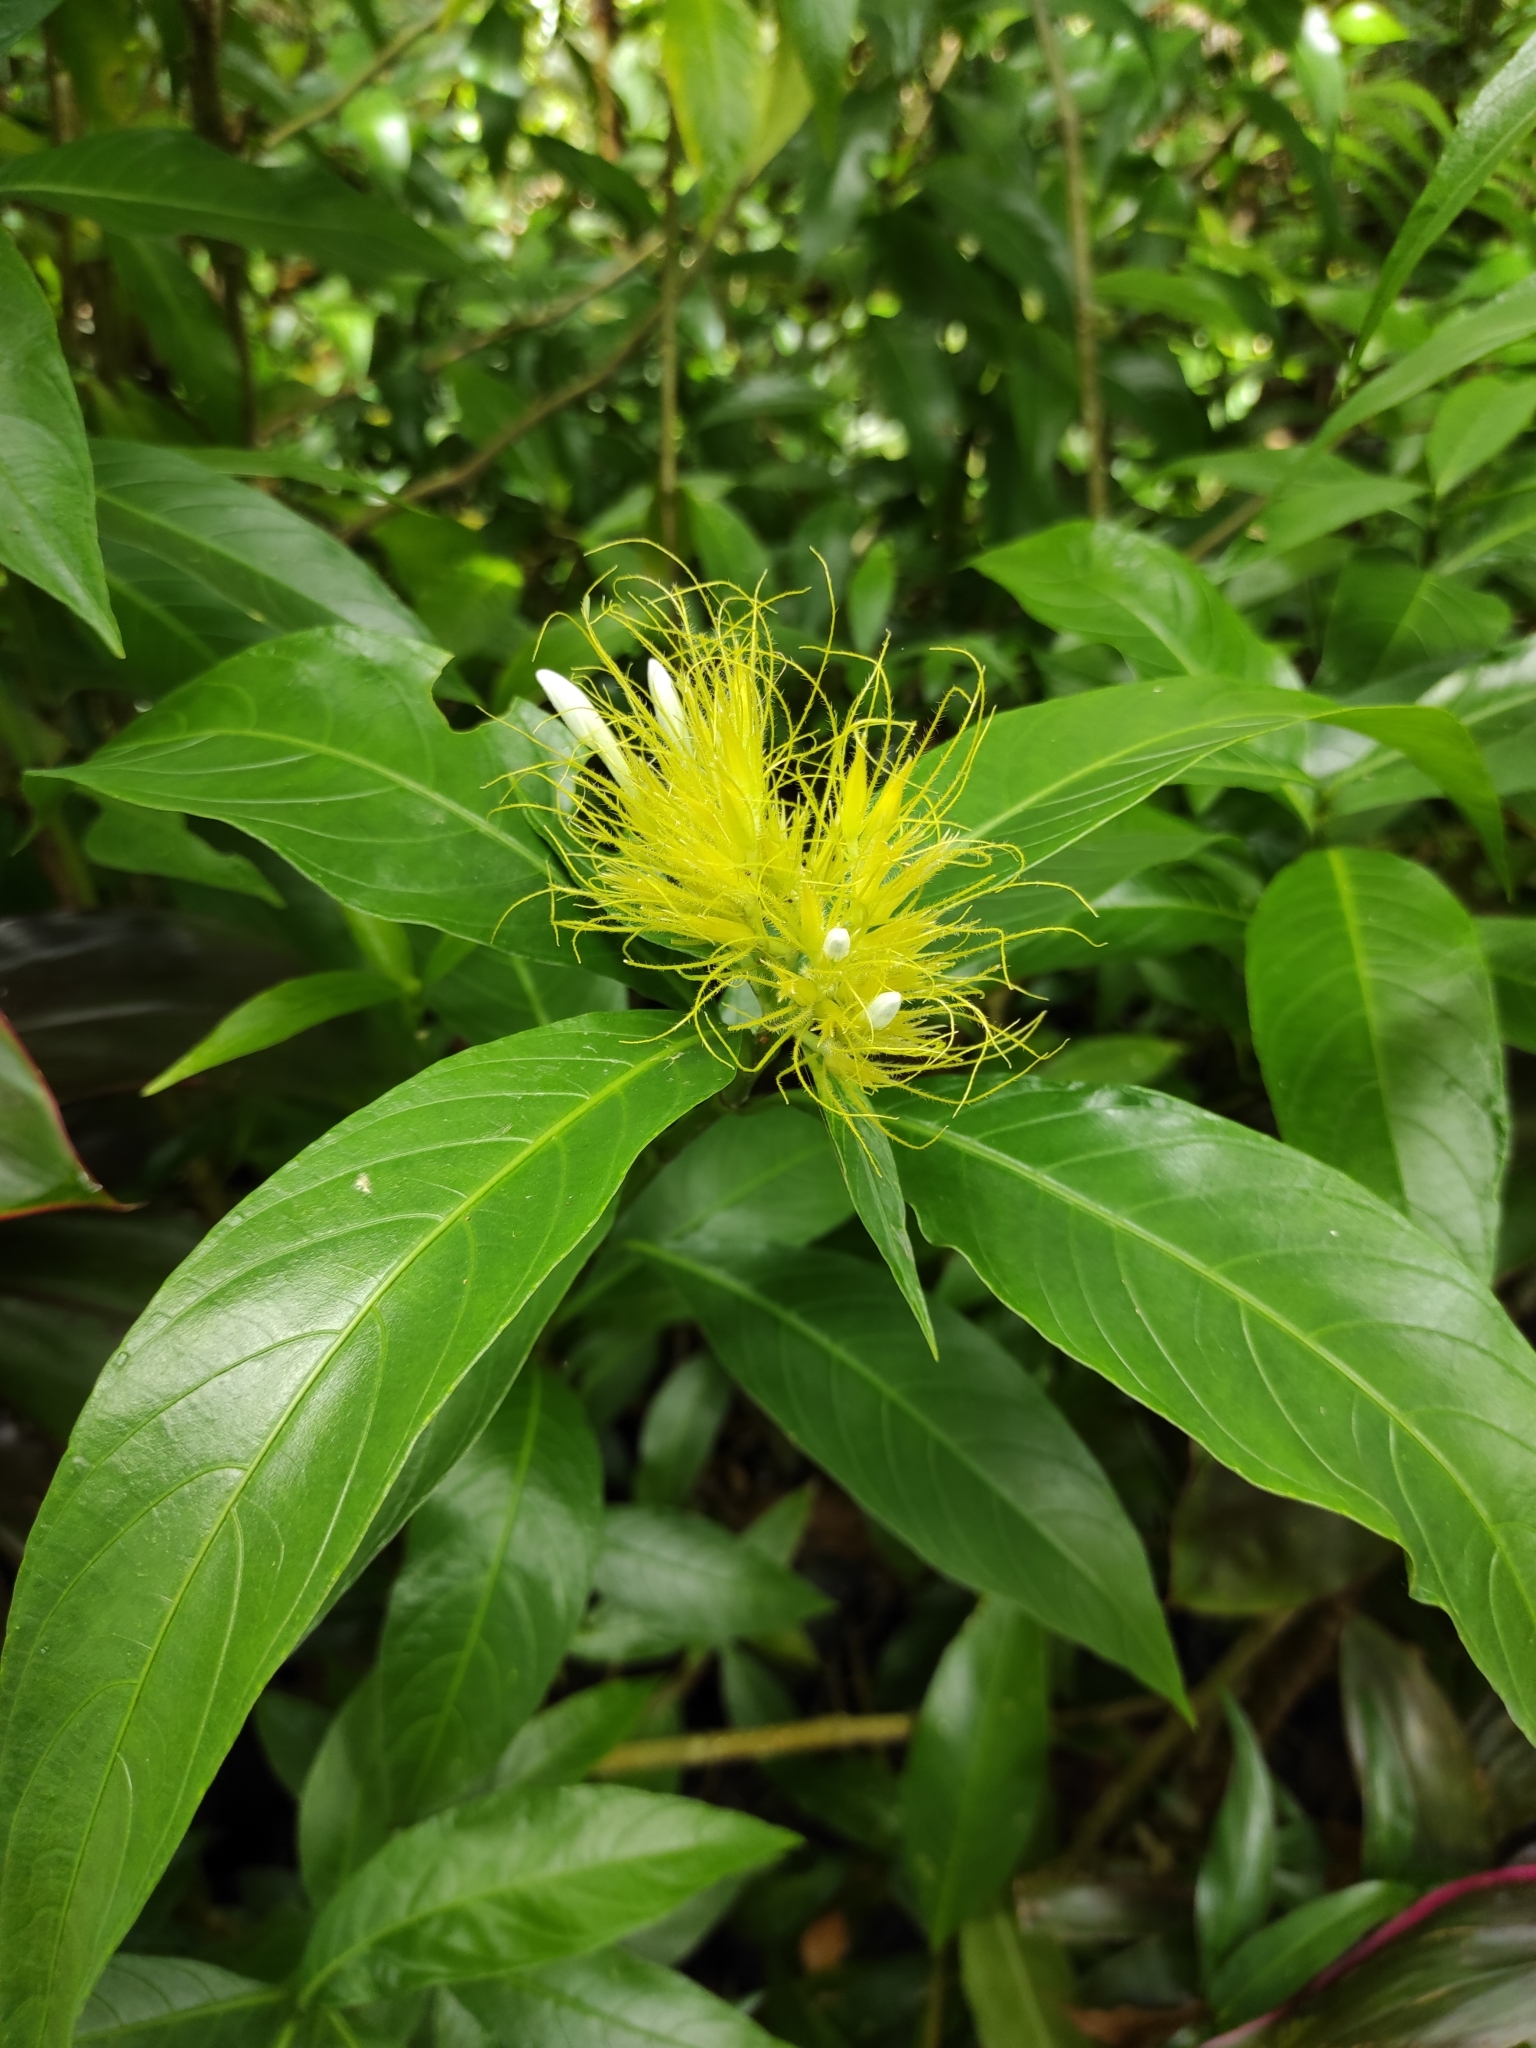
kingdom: Plantae
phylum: Tracheophyta
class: Magnoliopsida
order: Lamiales
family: Acanthaceae
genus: Justicia
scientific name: Justicia croceochlamys
